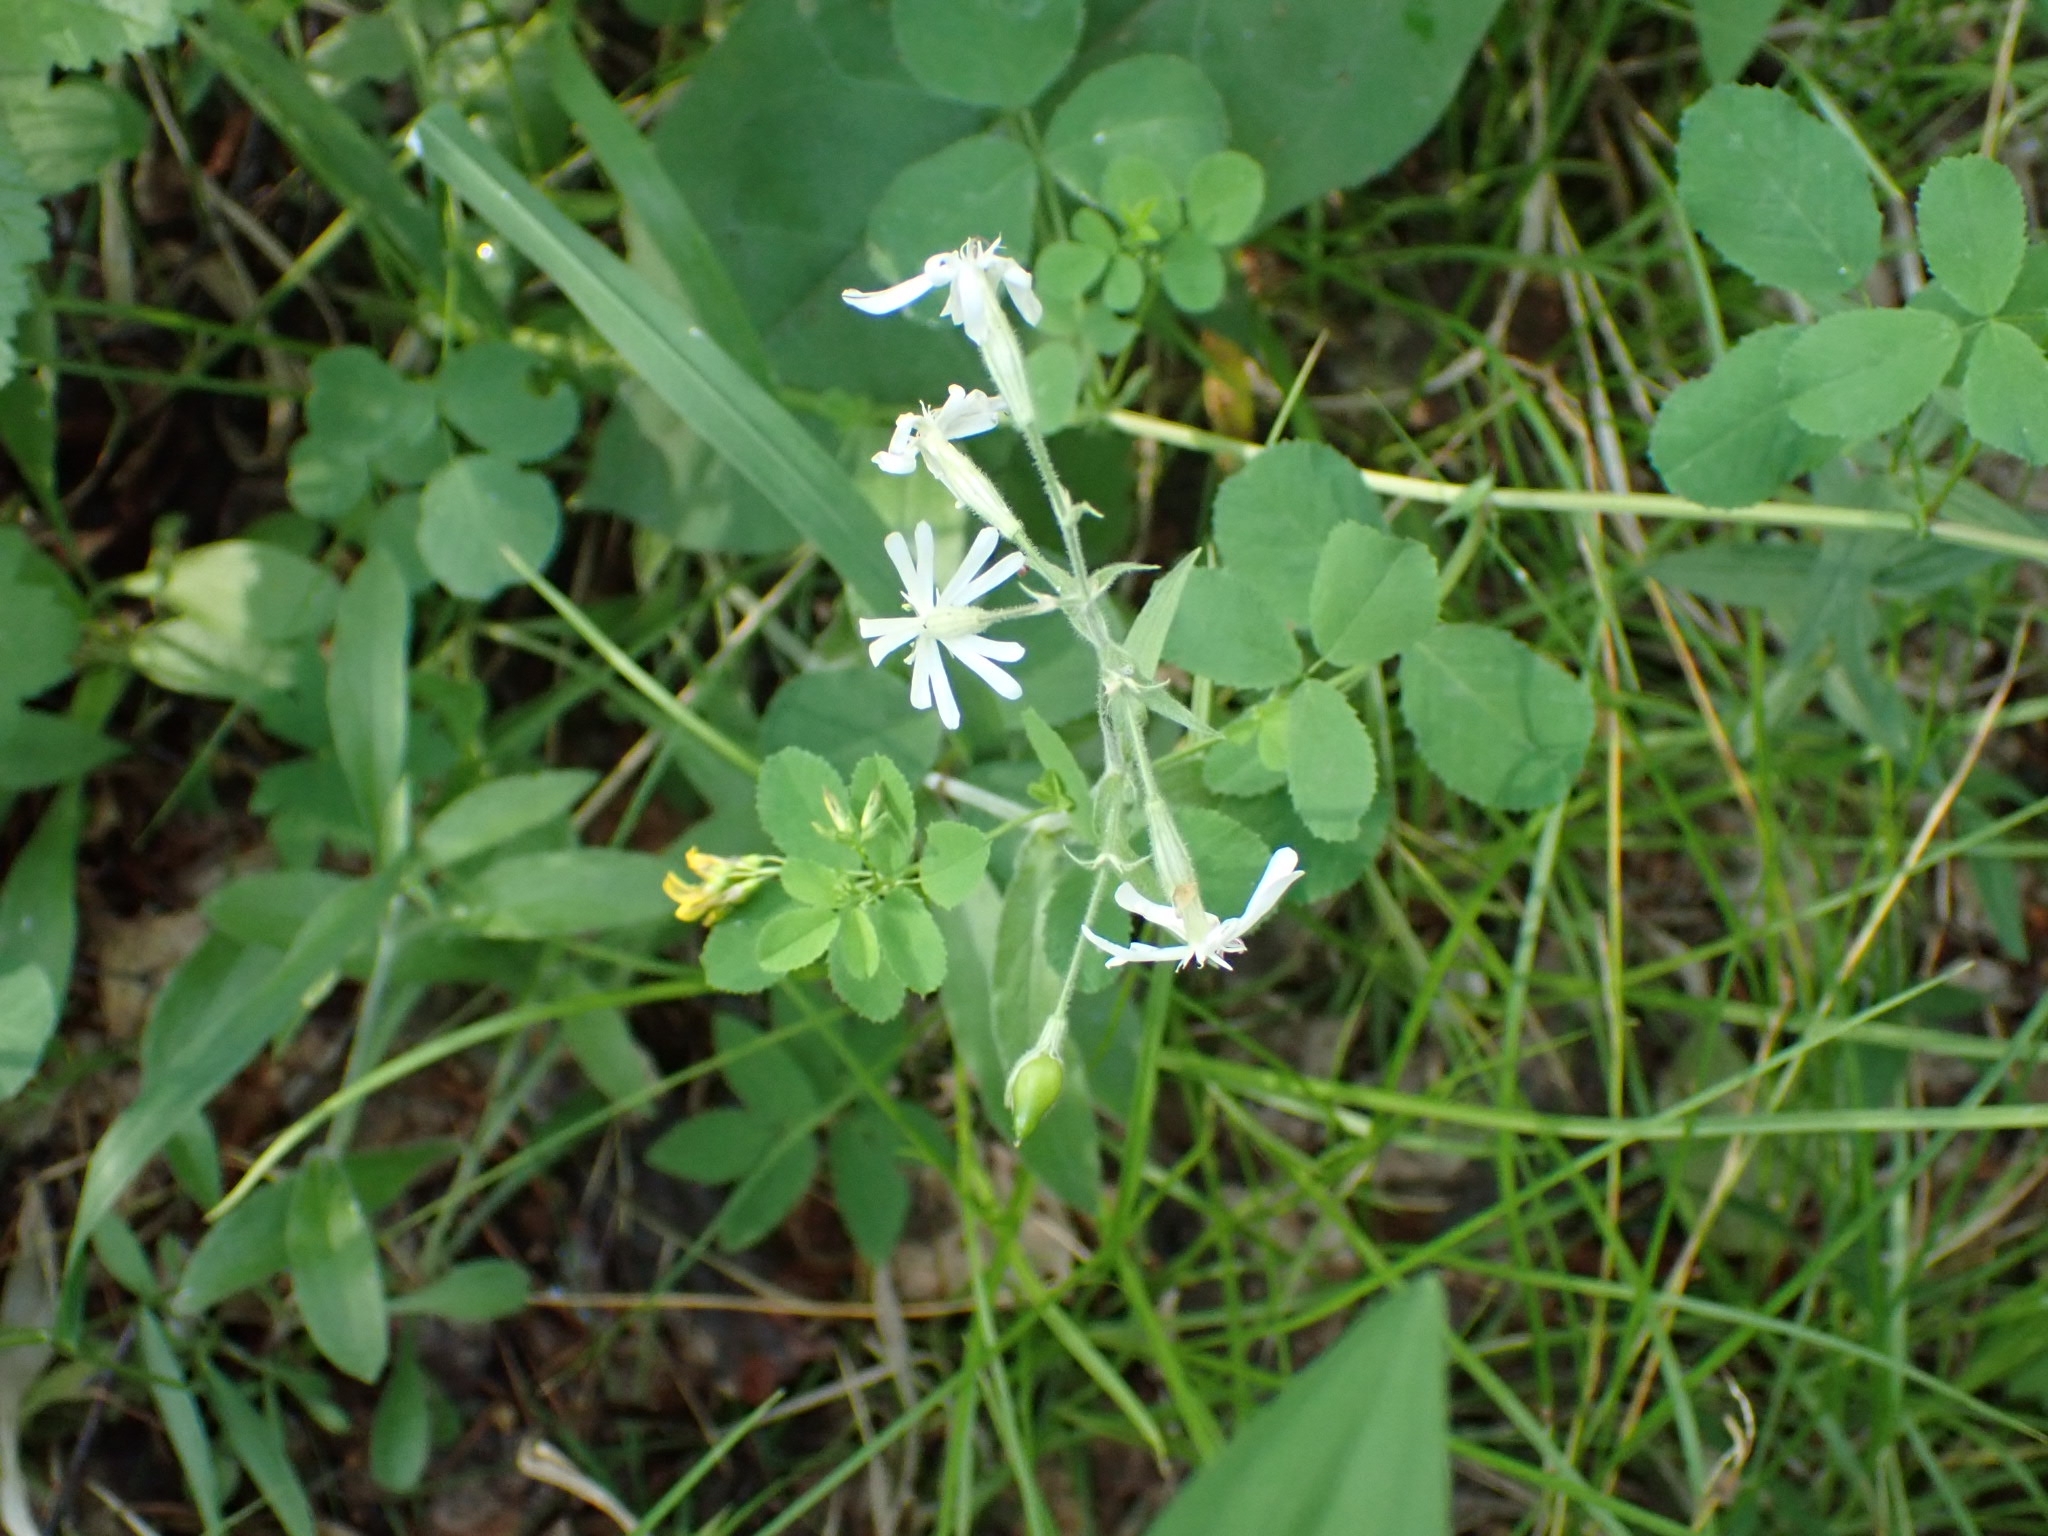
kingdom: Plantae
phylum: Tracheophyta
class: Magnoliopsida
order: Caryophyllales
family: Caryophyllaceae
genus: Silene
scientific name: Silene nutans
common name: Nottingham catchfly
